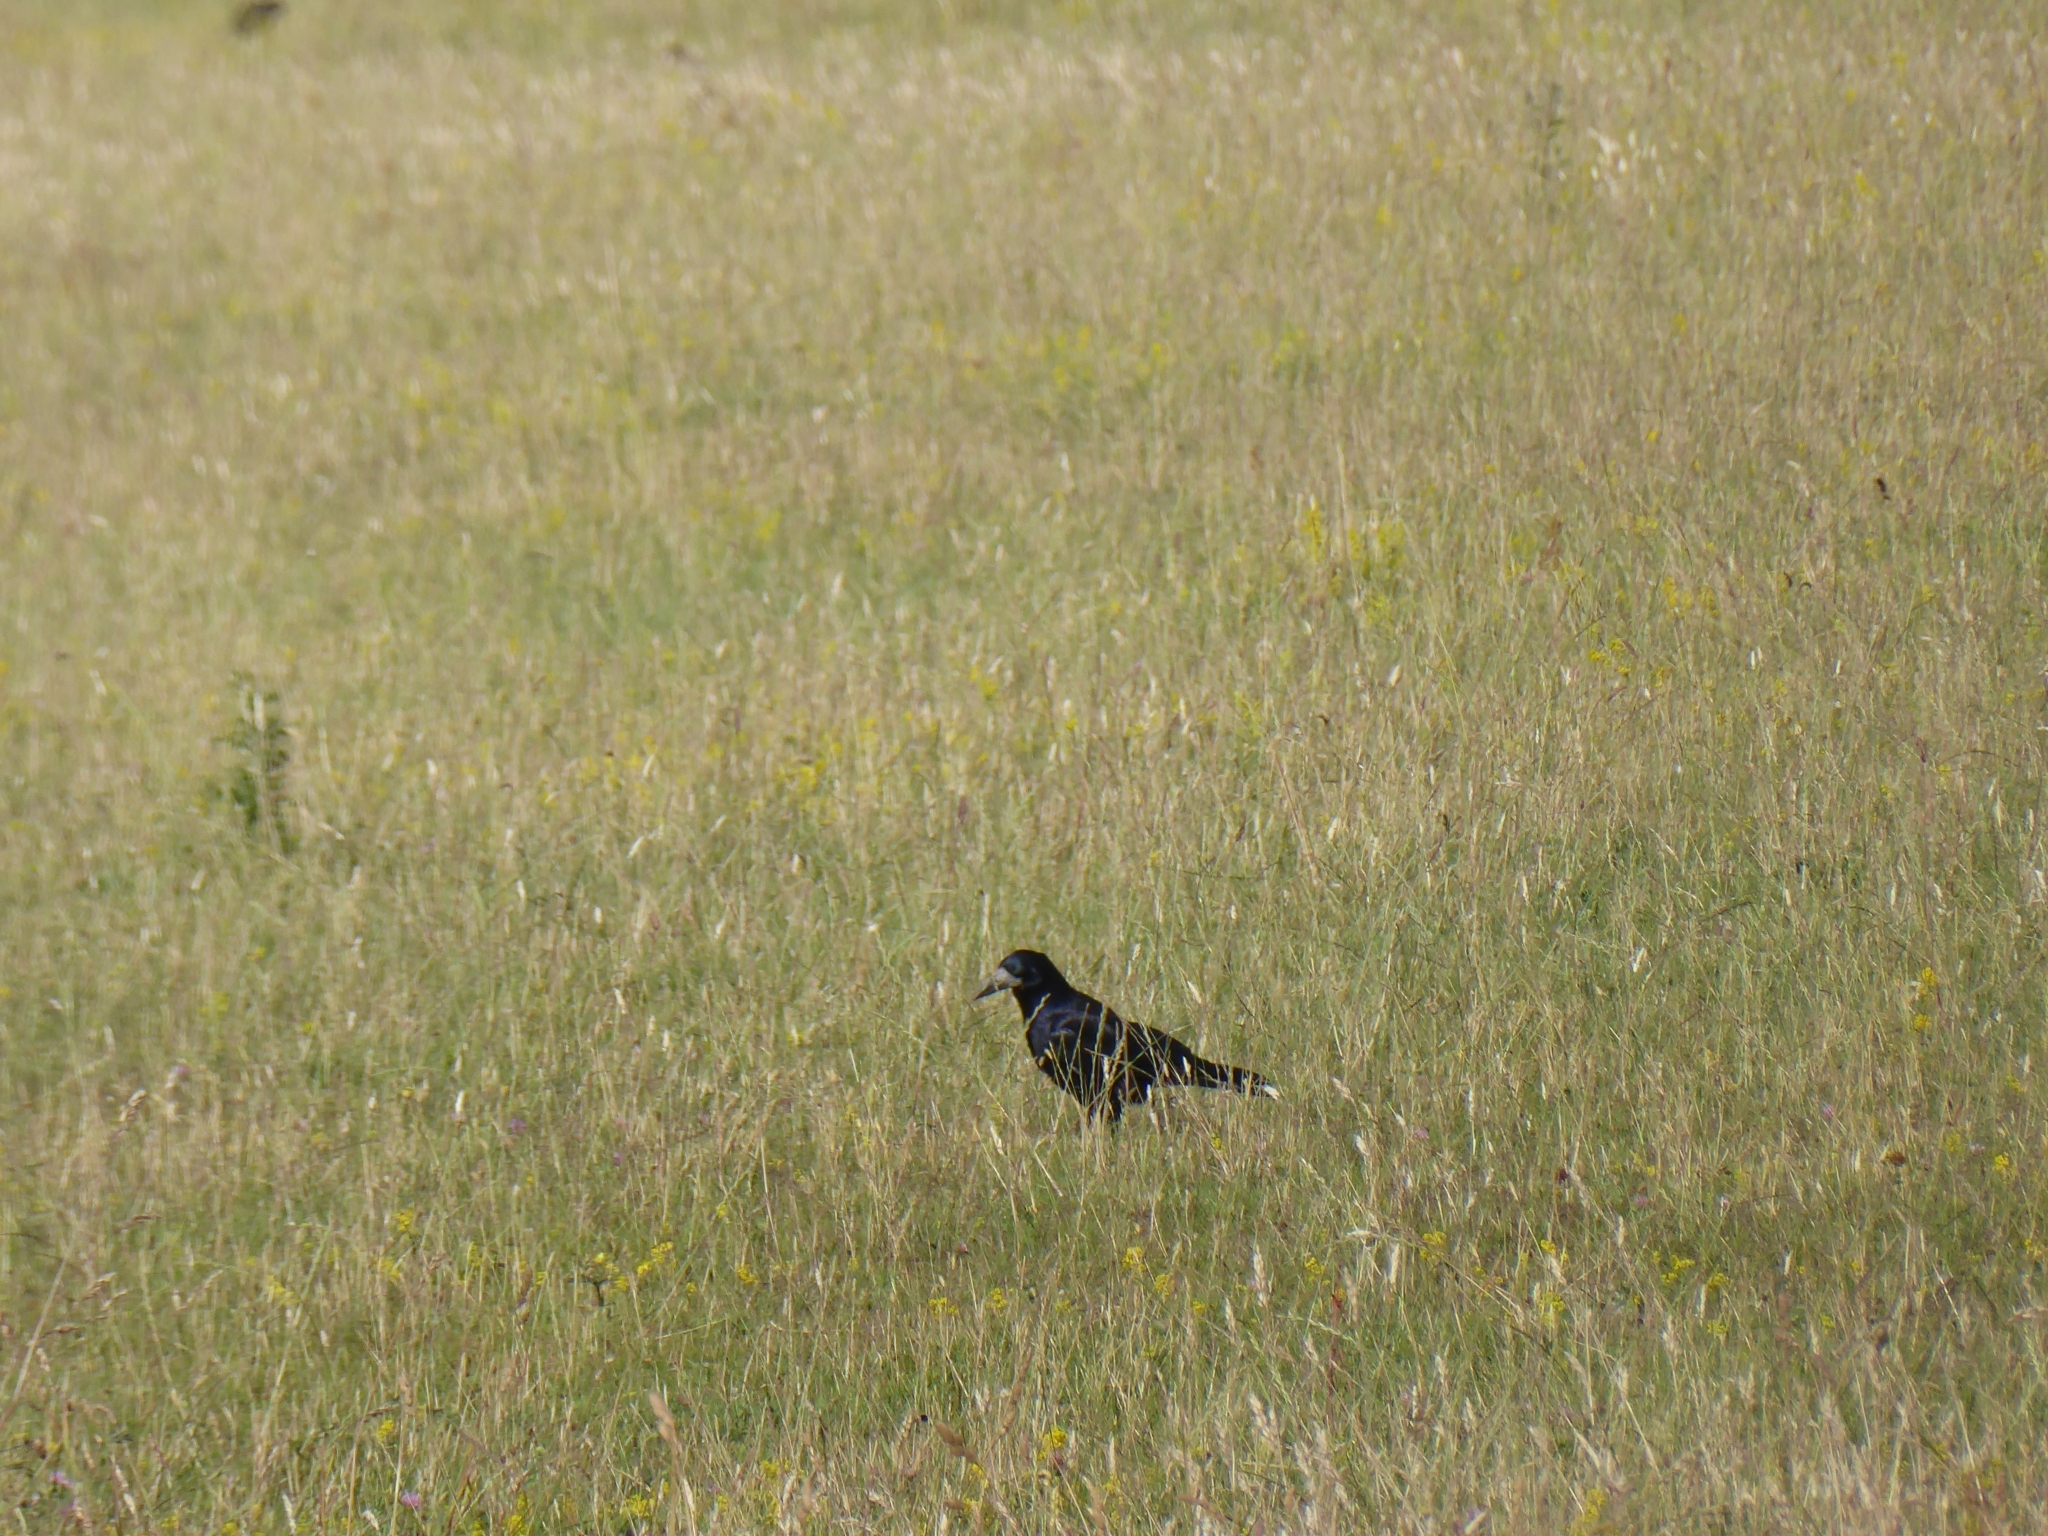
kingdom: Animalia
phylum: Chordata
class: Aves
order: Passeriformes
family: Corvidae
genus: Corvus
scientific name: Corvus frugilegus
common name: Rook
